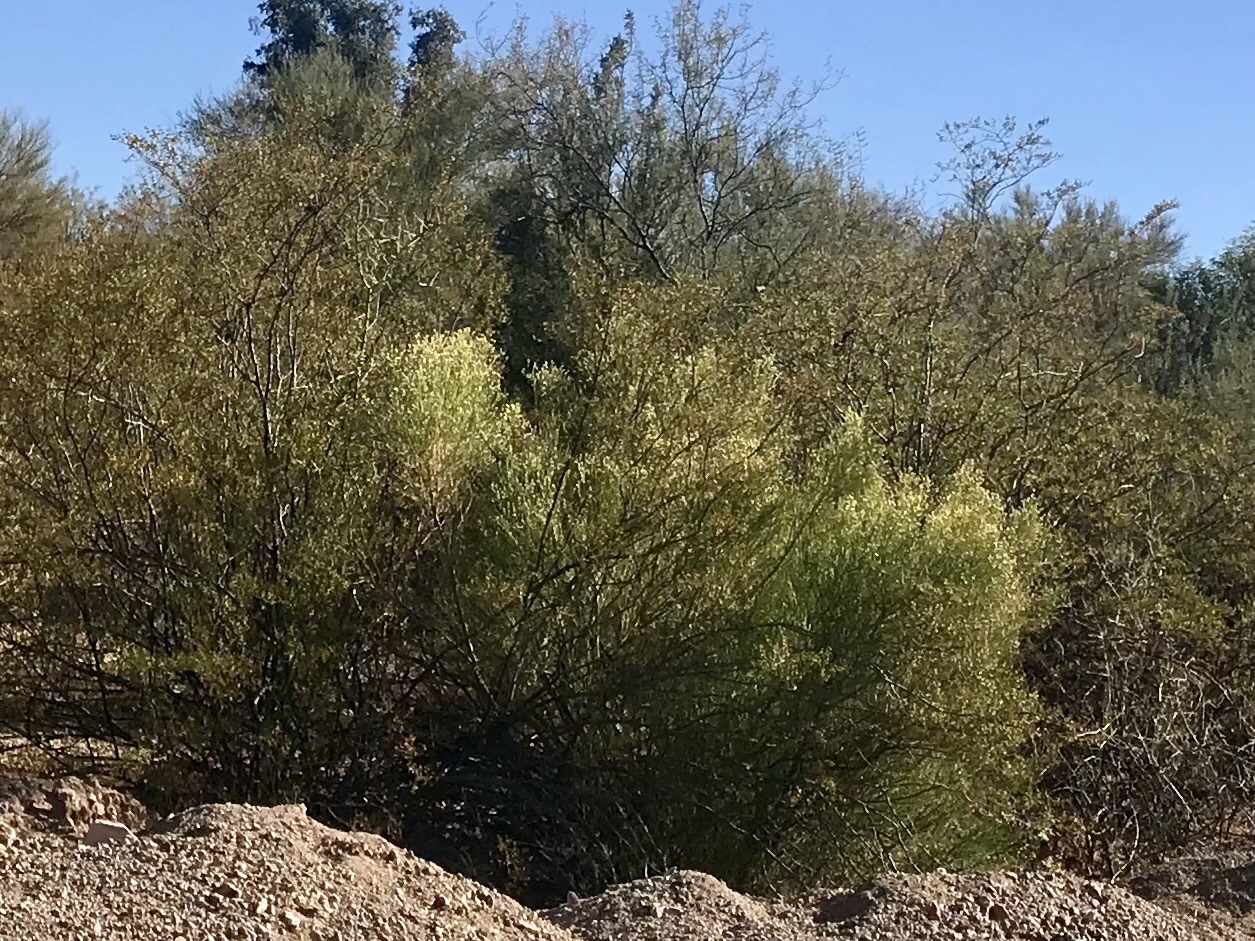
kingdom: Plantae
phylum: Tracheophyta
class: Magnoliopsida
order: Asterales
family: Asteraceae
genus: Baccharis
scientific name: Baccharis sarothroides
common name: Desert-broom
